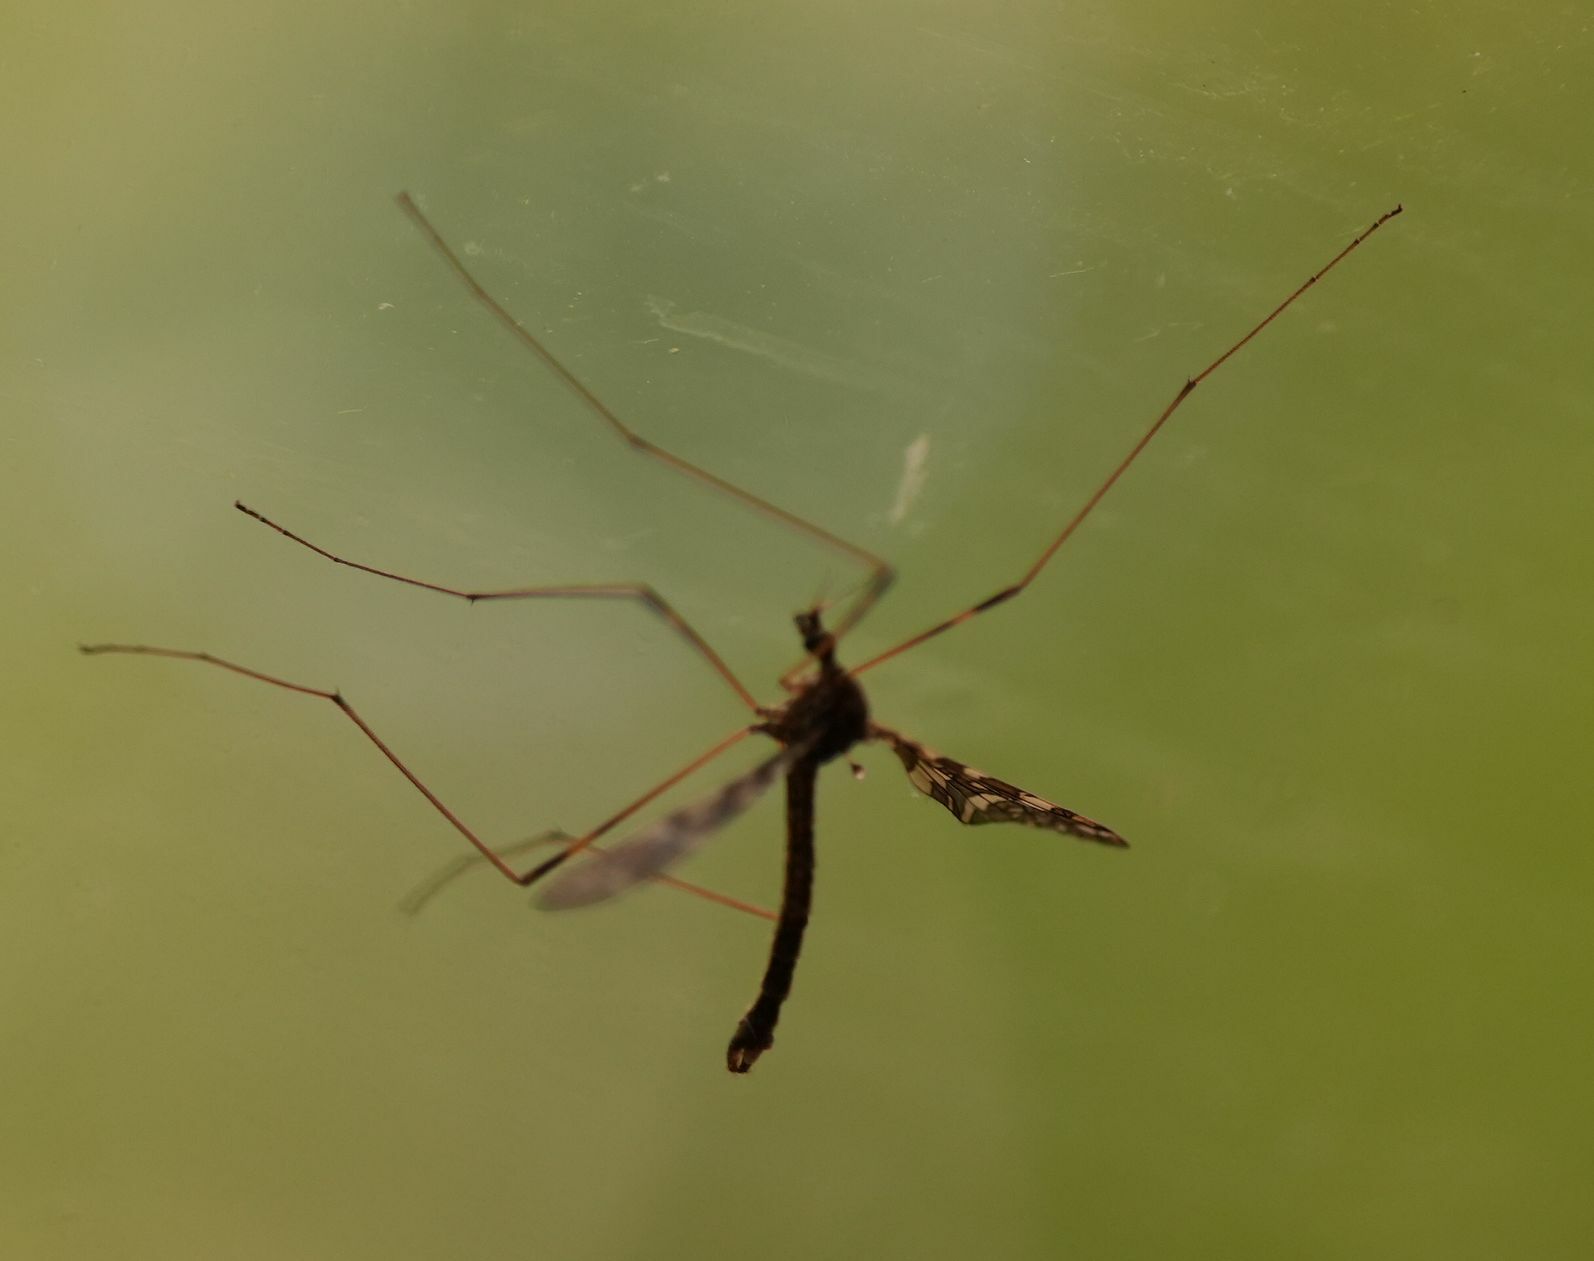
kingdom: Animalia
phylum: Arthropoda
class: Insecta
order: Diptera
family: Limoniidae
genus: Epiphragma
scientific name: Epiphragma fasciapenne
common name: Band-winged crane fly
